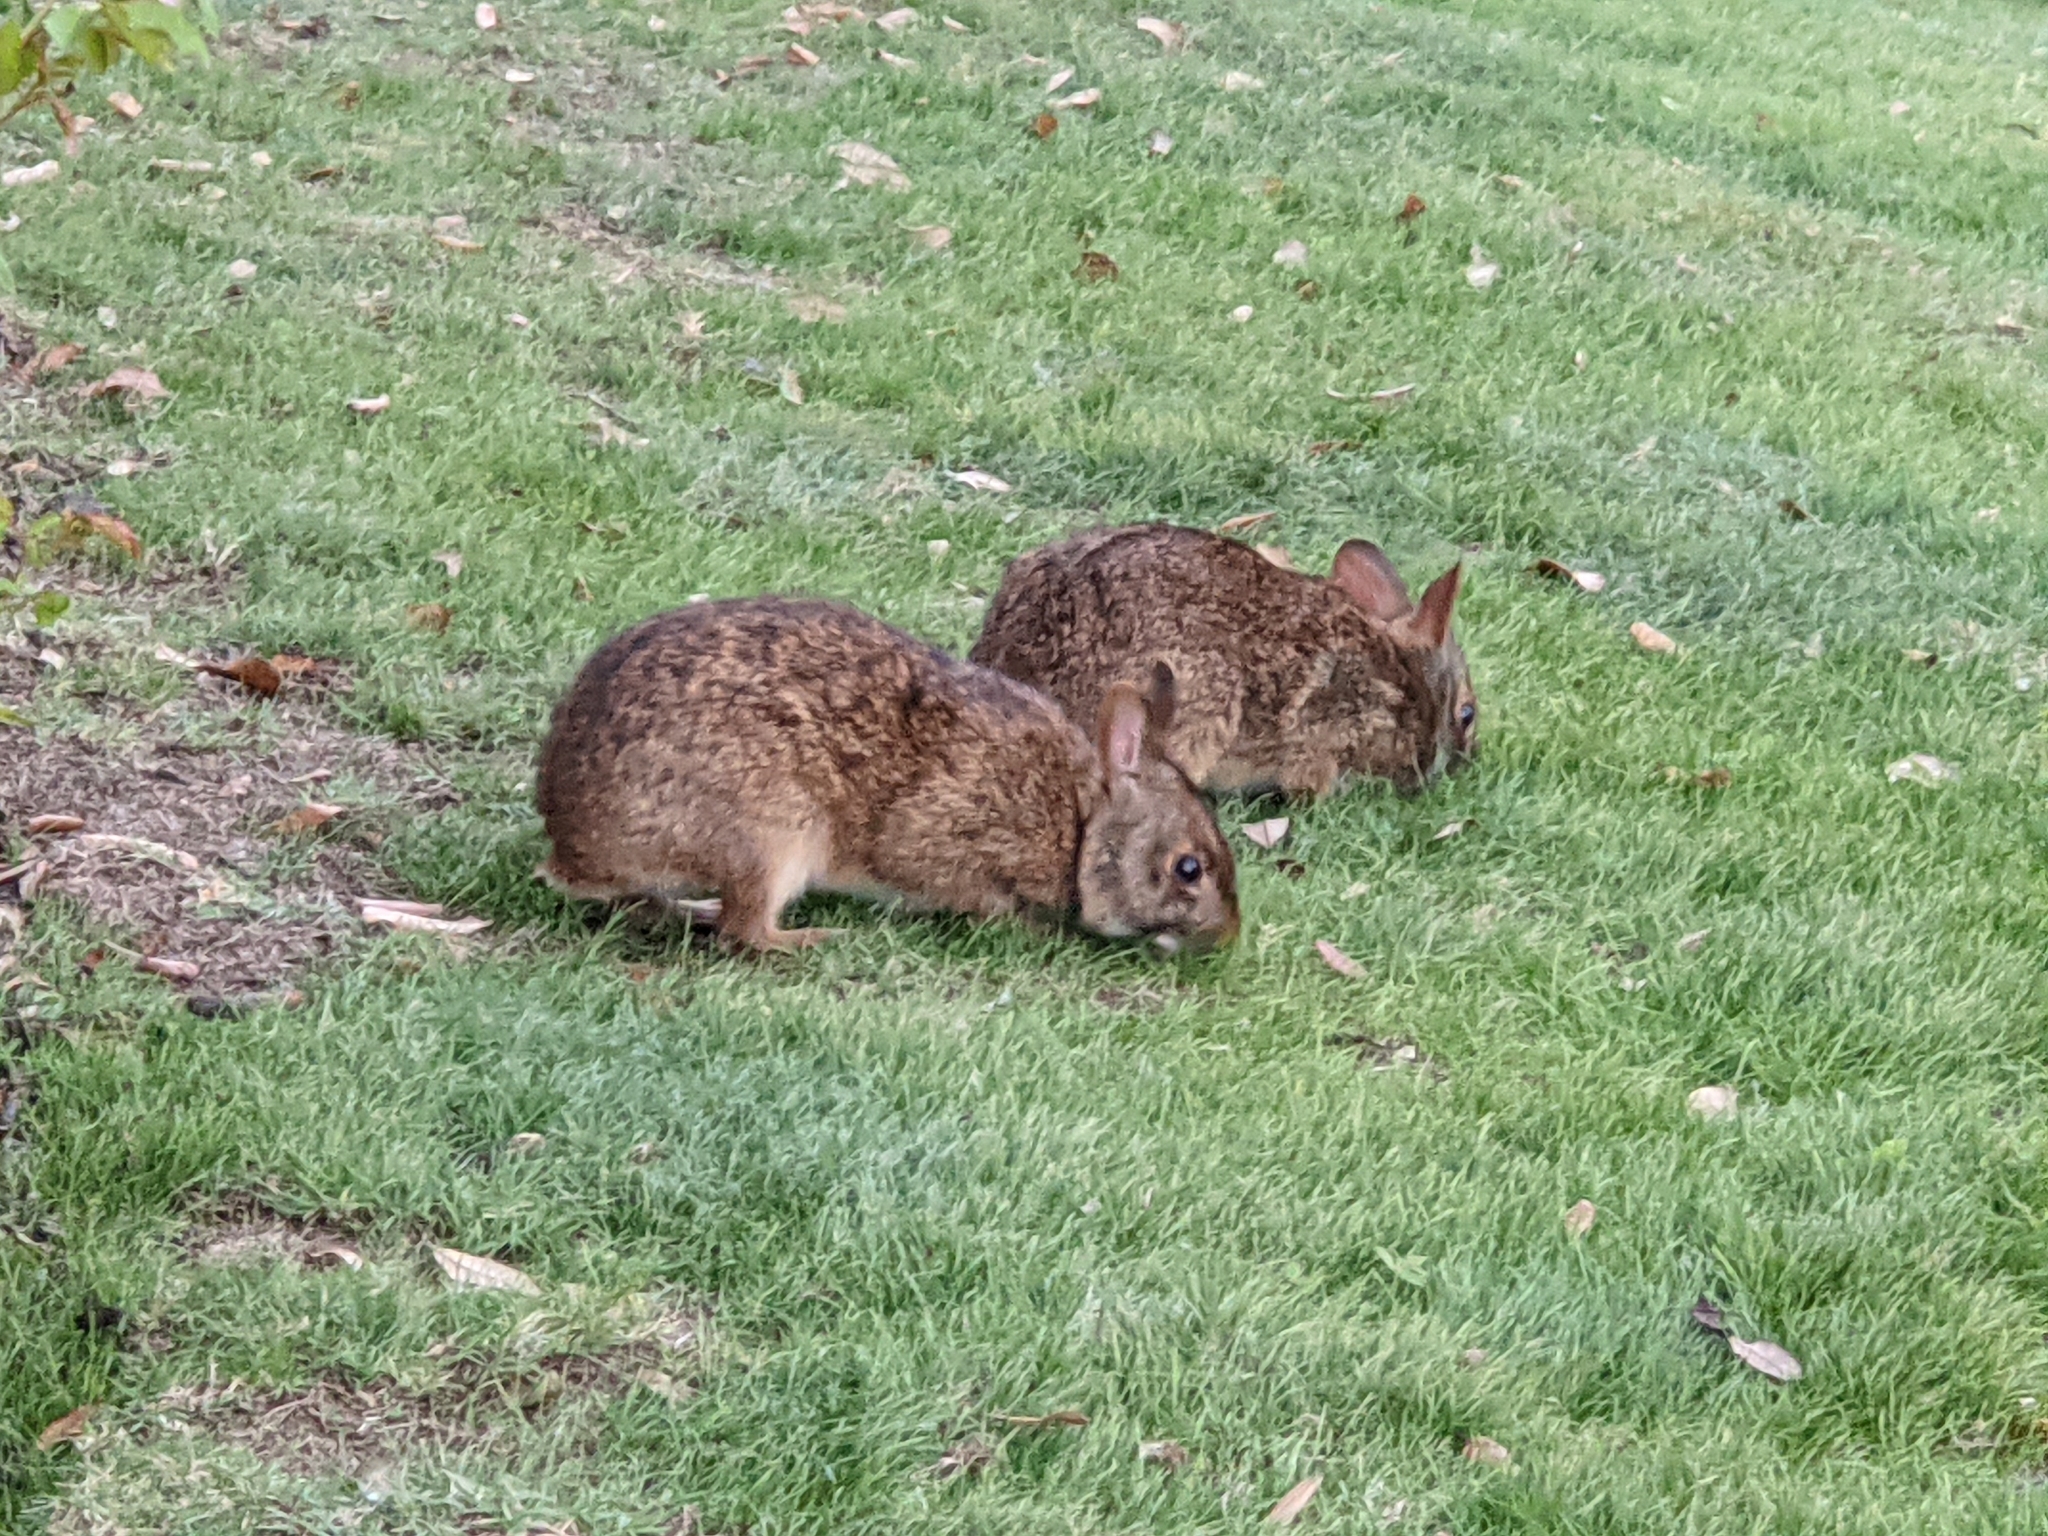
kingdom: Animalia
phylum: Chordata
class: Mammalia
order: Lagomorpha
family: Leporidae
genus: Sylvilagus
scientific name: Sylvilagus palustris
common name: Marsh rabbit
